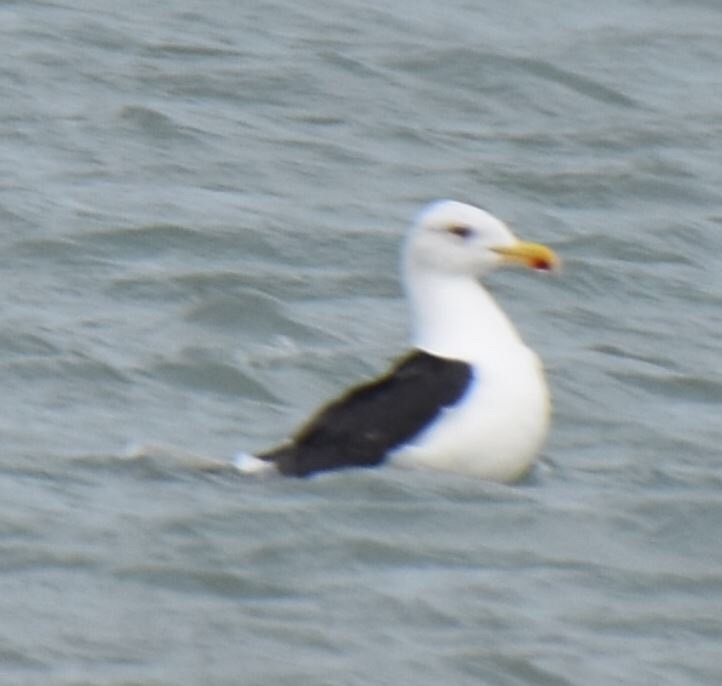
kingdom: Animalia
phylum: Chordata
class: Aves
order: Charadriiformes
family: Laridae
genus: Larus
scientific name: Larus marinus
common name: Great black-backed gull
